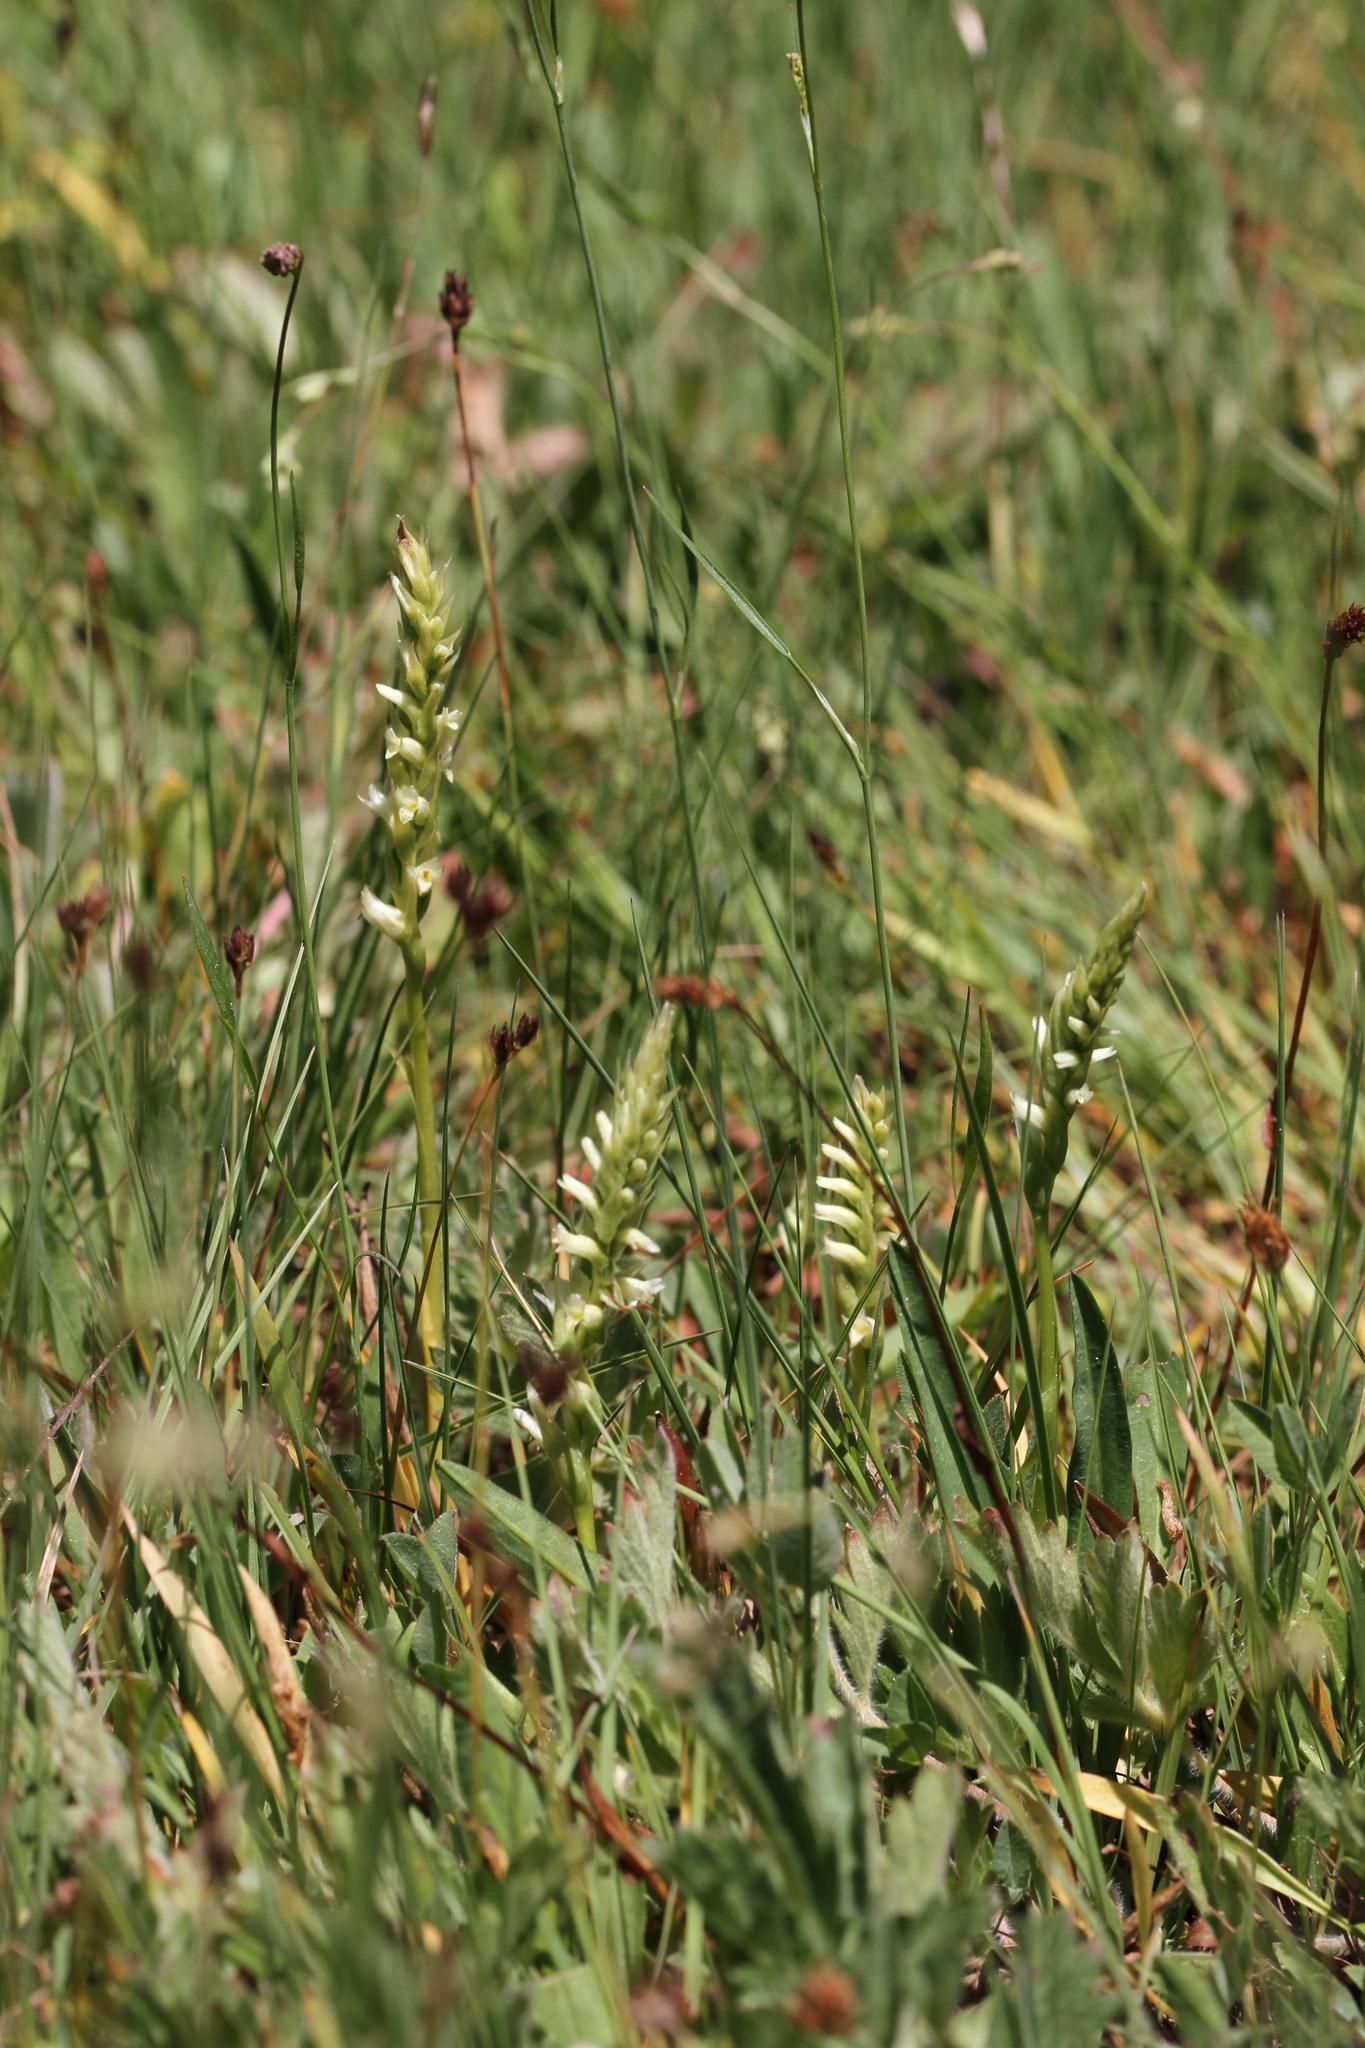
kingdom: Plantae
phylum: Tracheophyta
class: Liliopsida
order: Asparagales
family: Orchidaceae
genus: Spiranthes
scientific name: Spiranthes stellata
